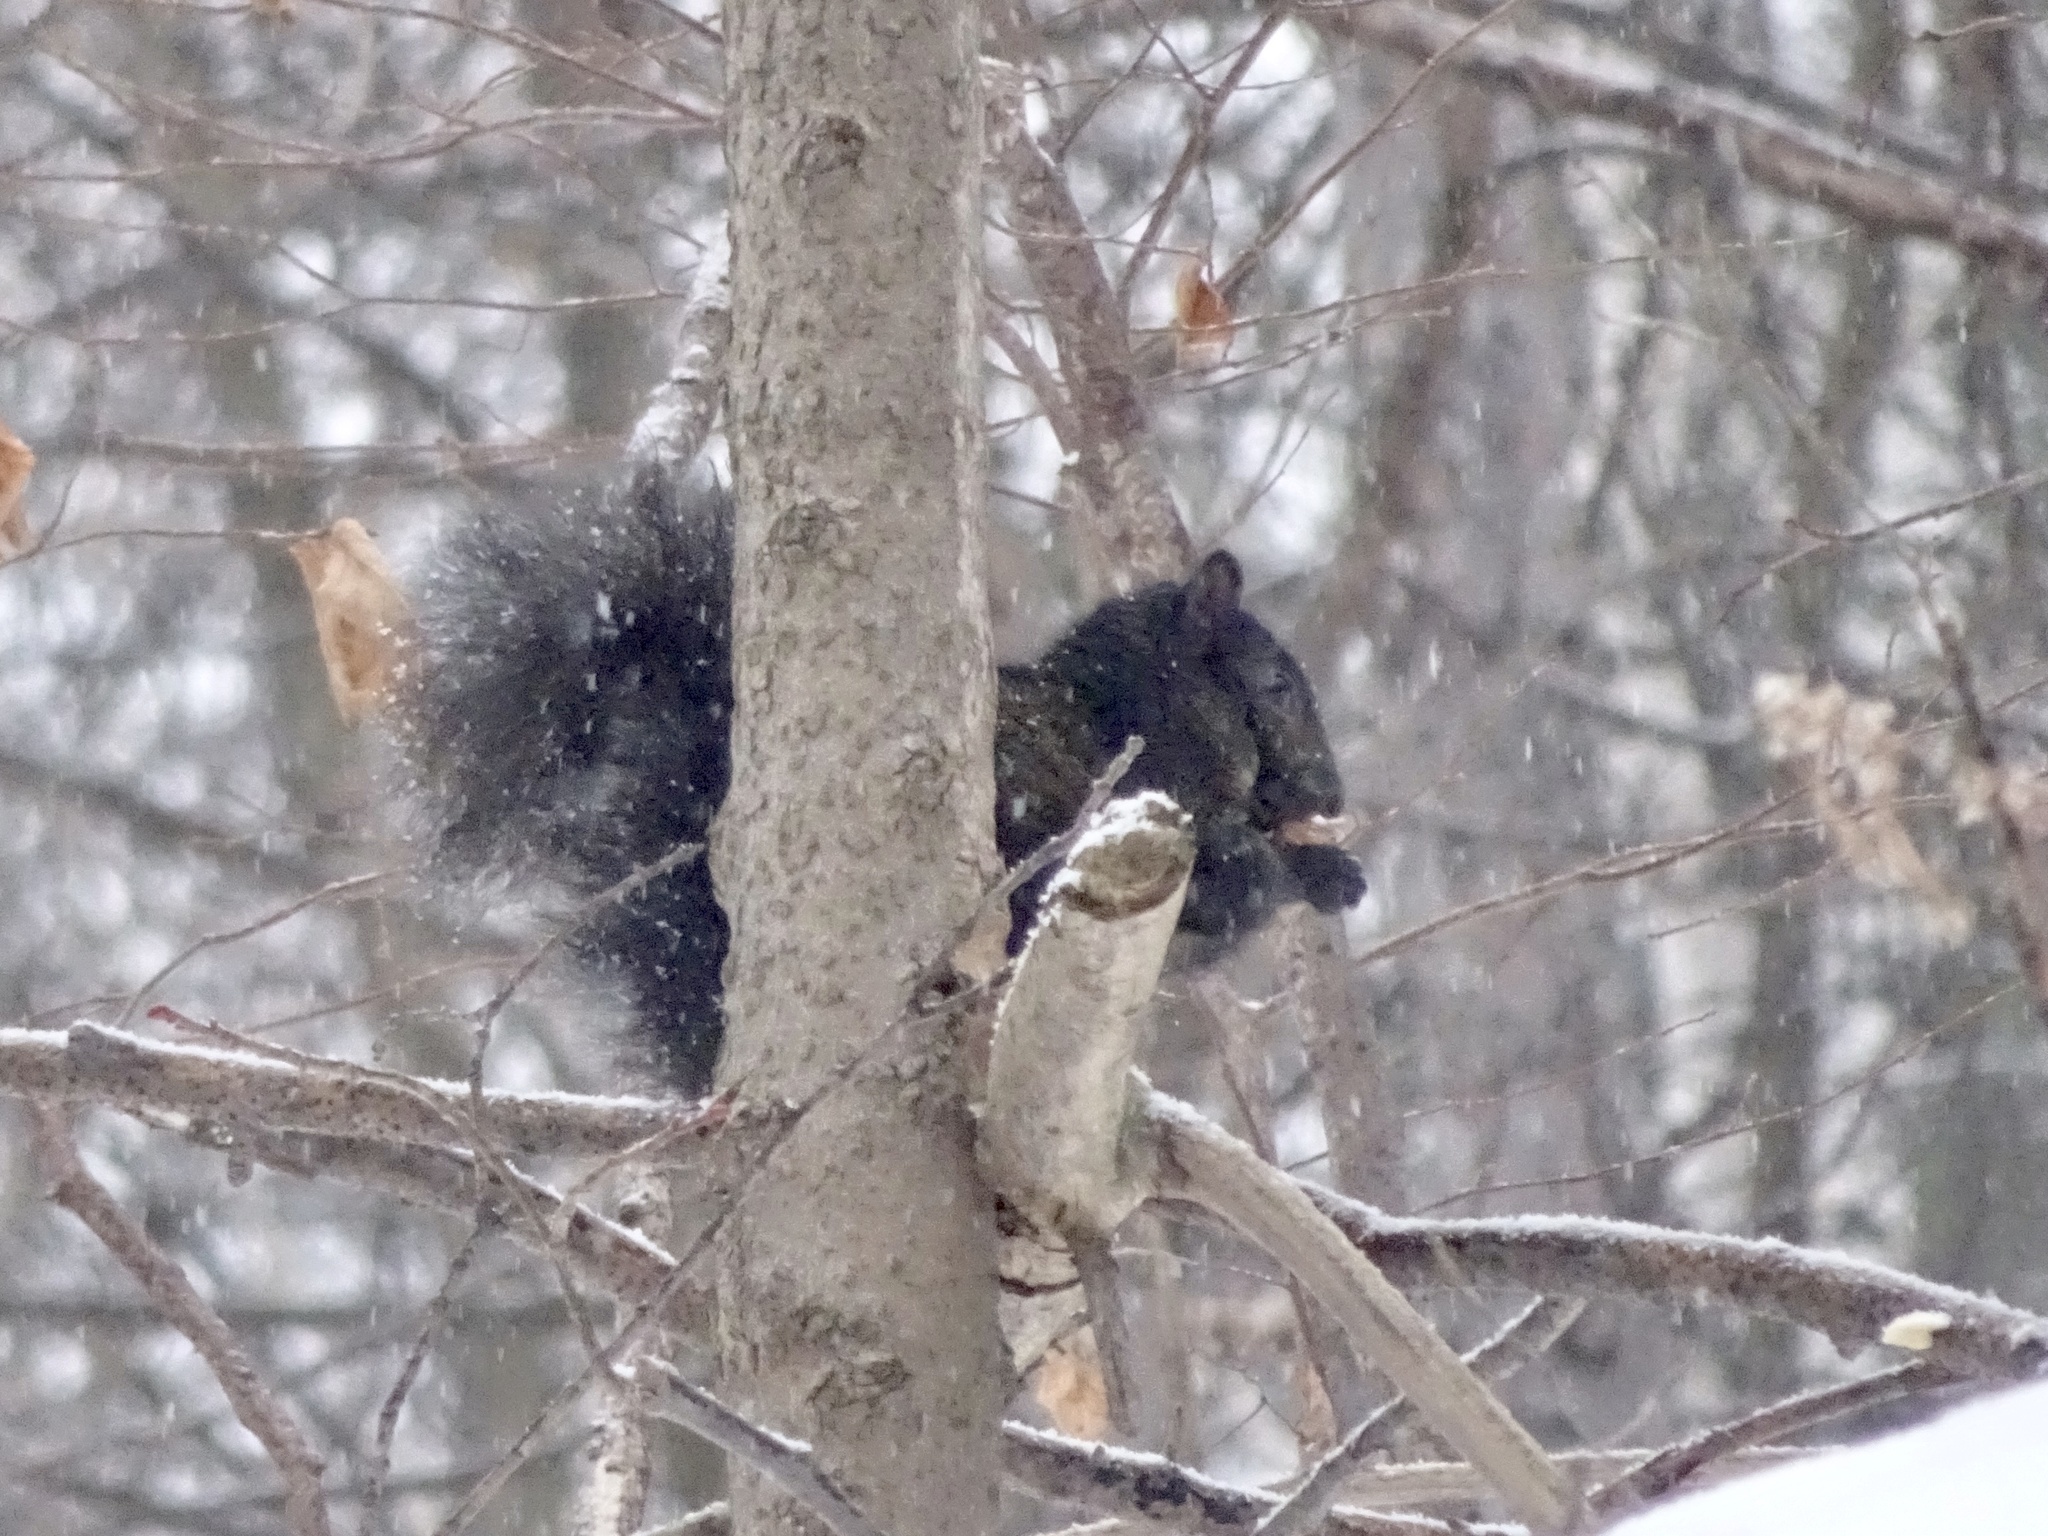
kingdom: Animalia
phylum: Chordata
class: Mammalia
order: Rodentia
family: Sciuridae
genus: Sciurus
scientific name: Sciurus carolinensis
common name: Eastern gray squirrel
